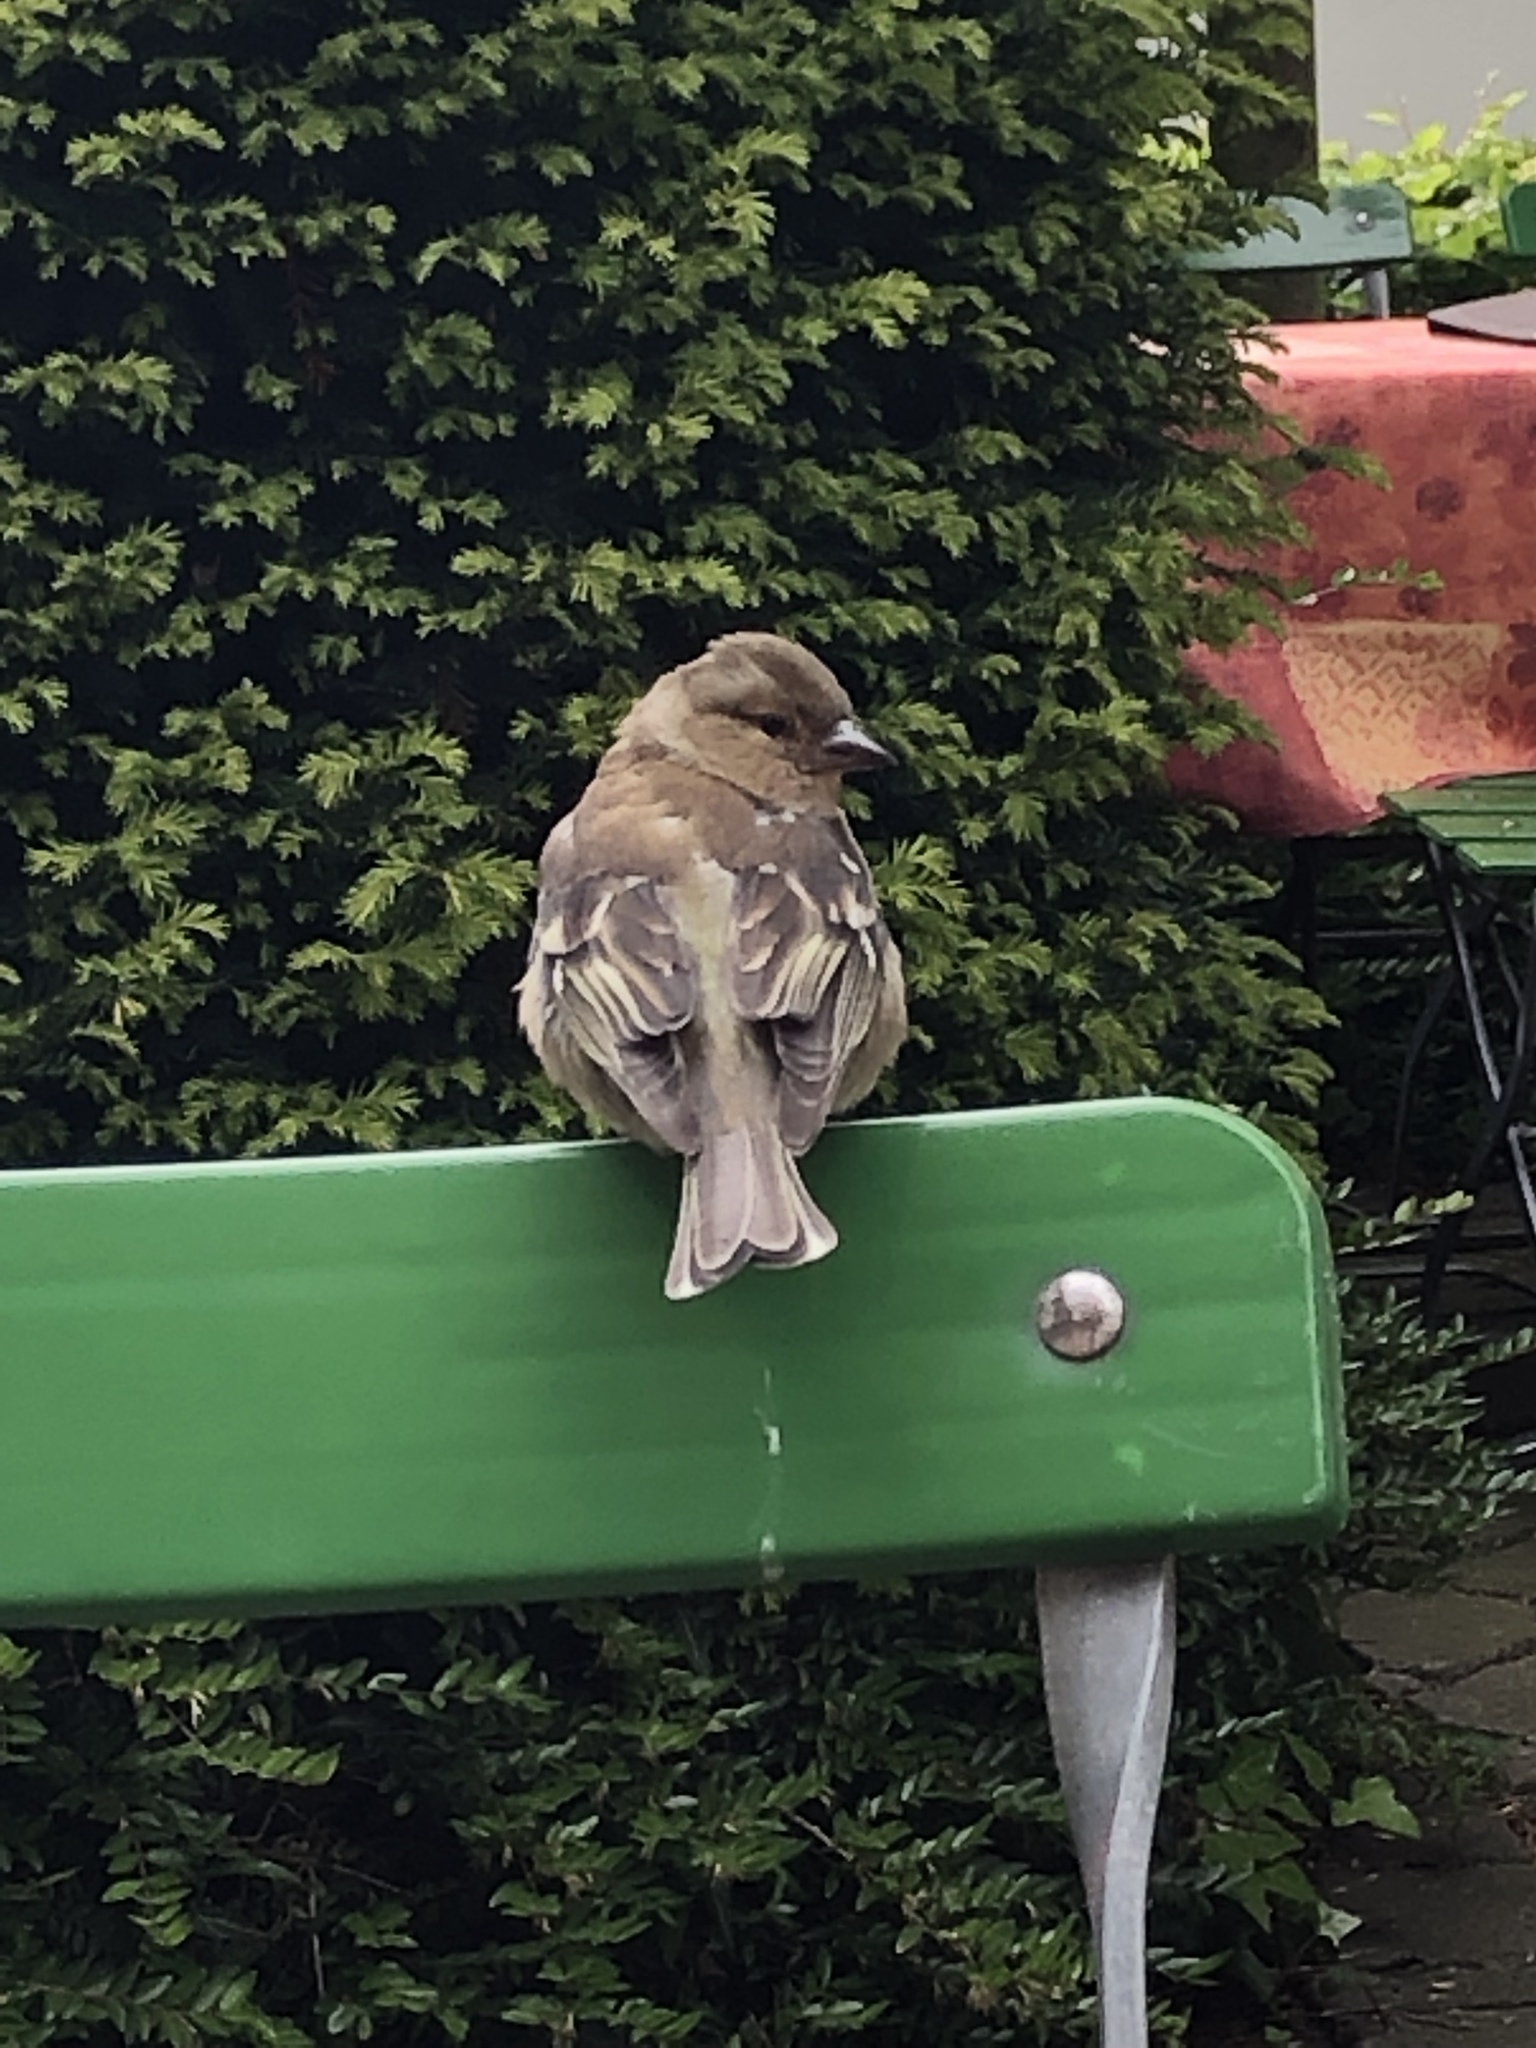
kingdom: Animalia
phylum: Chordata
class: Aves
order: Passeriformes
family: Fringillidae
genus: Fringilla
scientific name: Fringilla coelebs
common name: Common chaffinch
